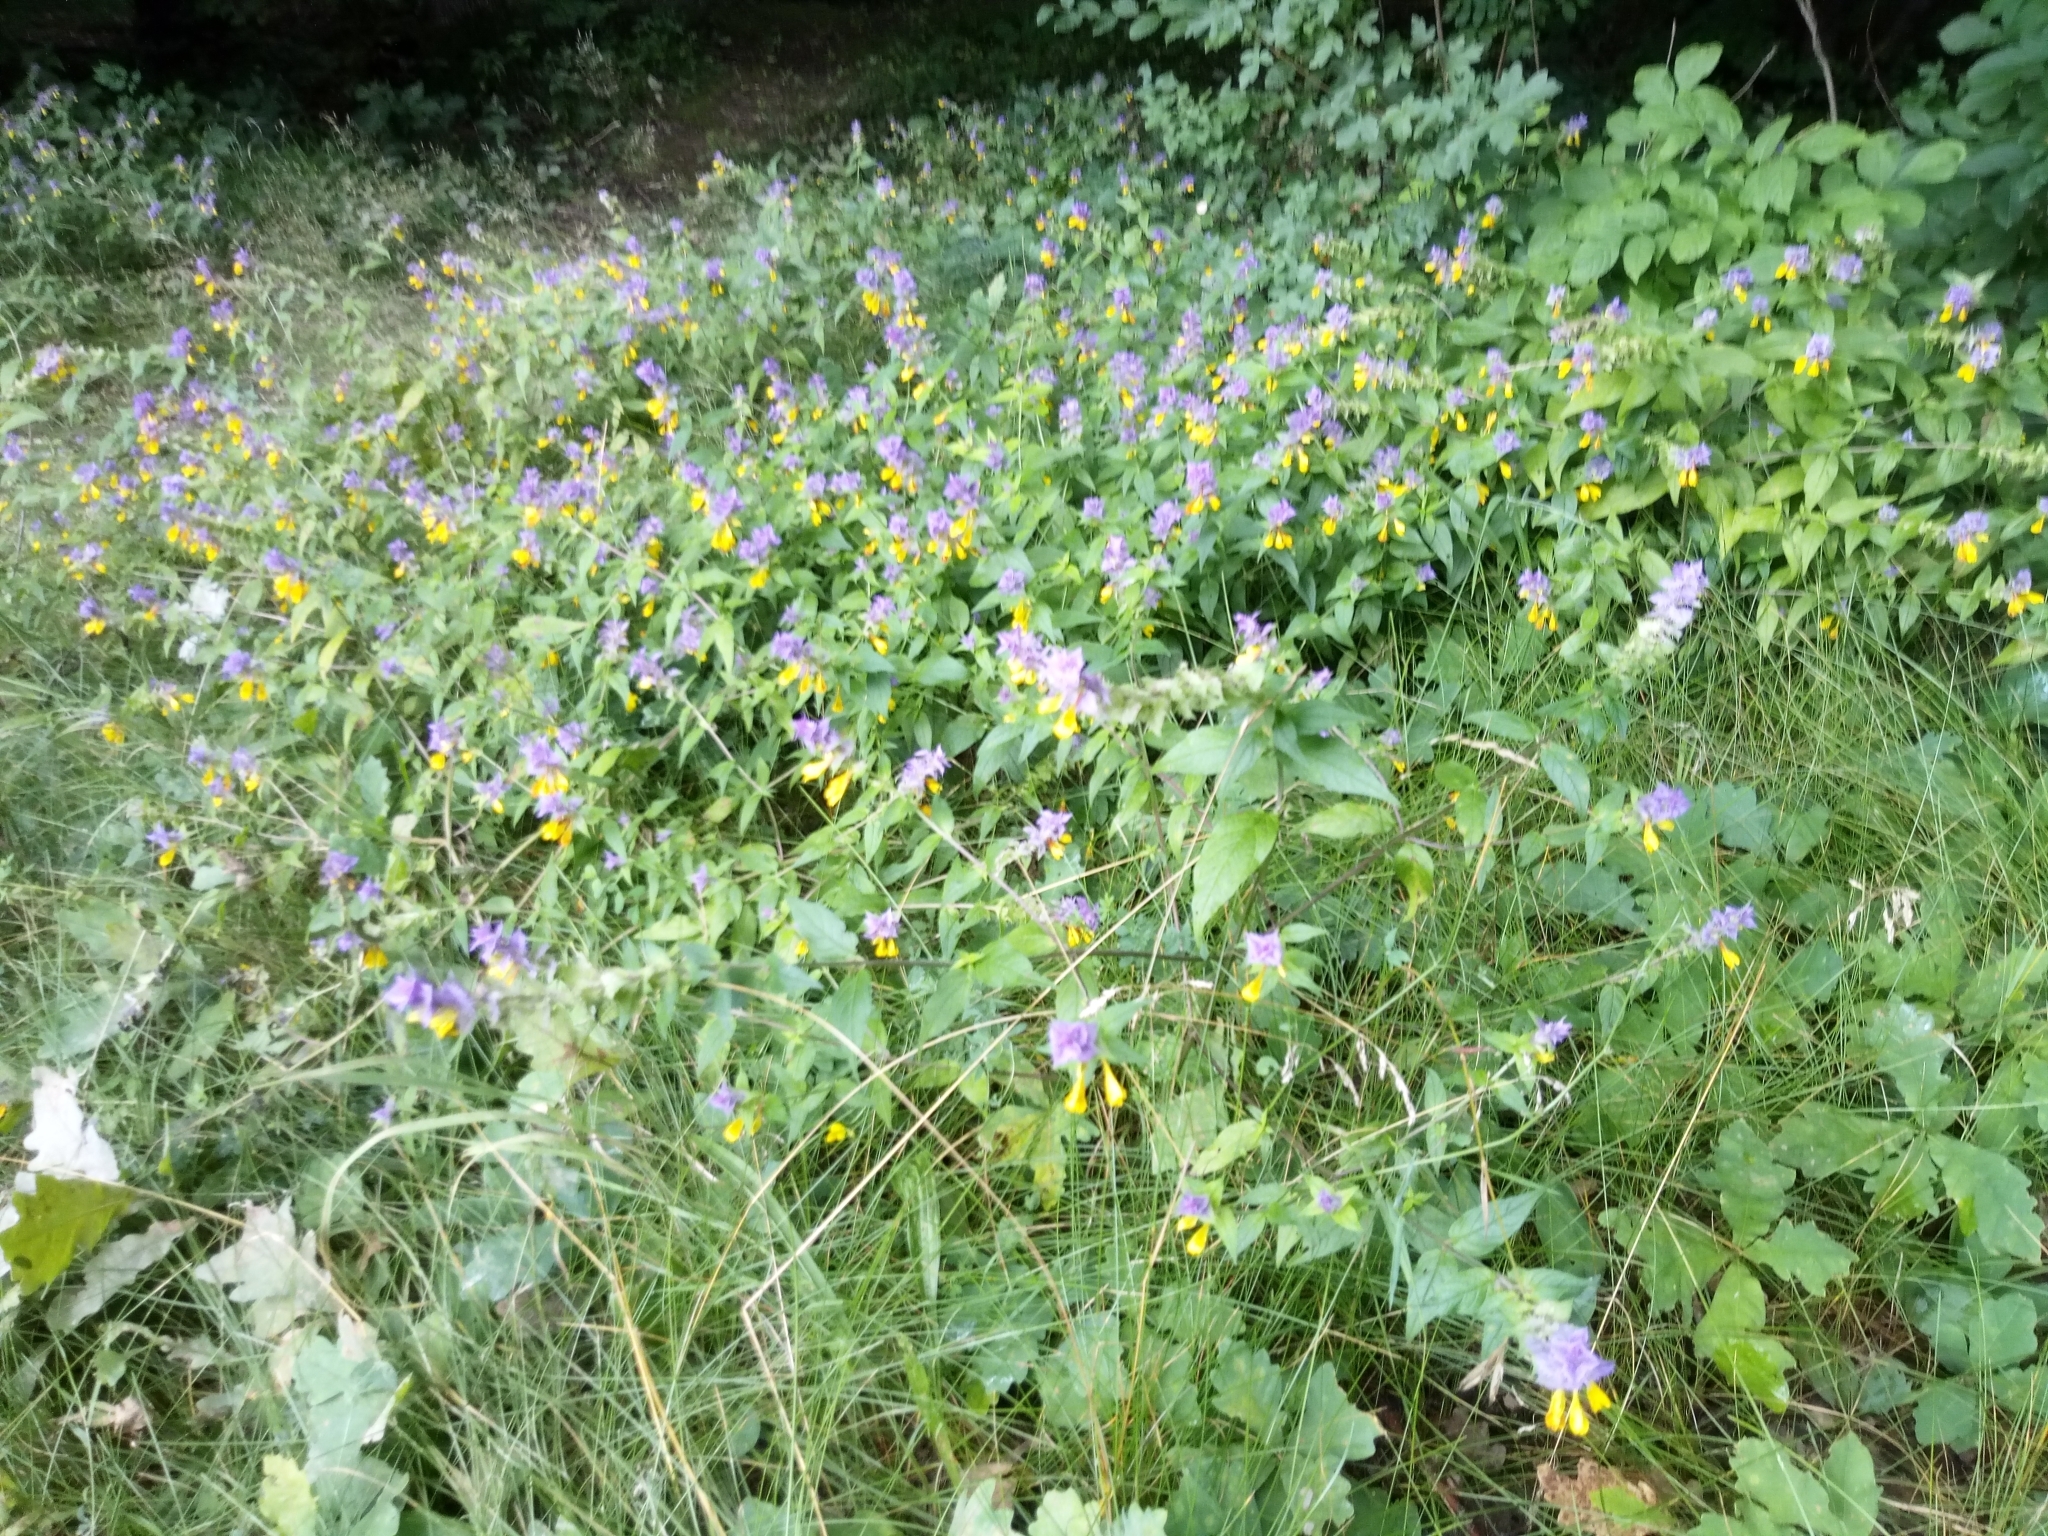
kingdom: Plantae
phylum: Tracheophyta
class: Magnoliopsida
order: Lamiales
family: Orobanchaceae
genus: Melampyrum
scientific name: Melampyrum nemorosum
